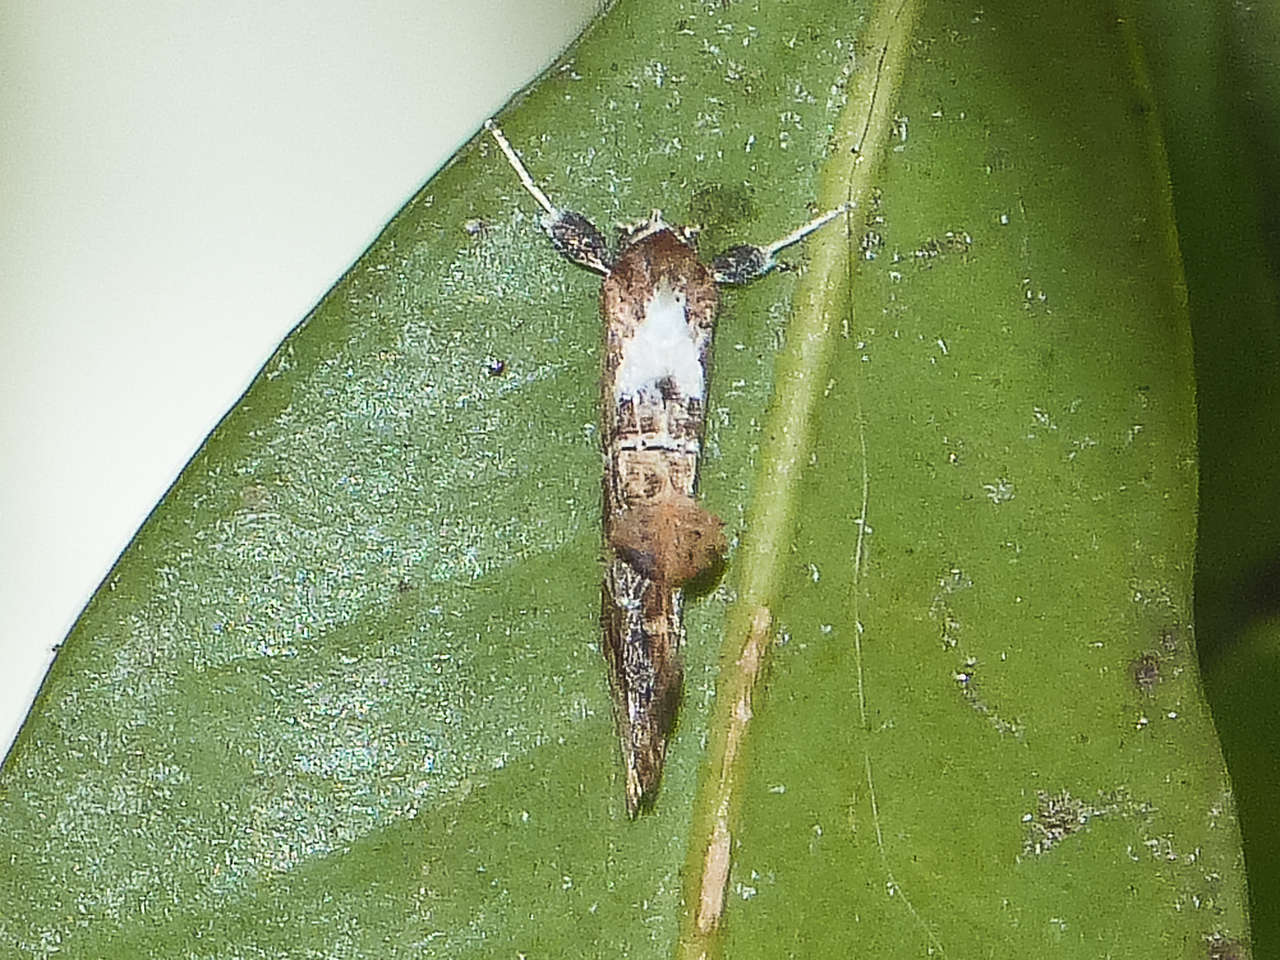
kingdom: Animalia
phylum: Arthropoda
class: Insecta
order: Lepidoptera
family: Erebidae
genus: Arrade
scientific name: Arrade leucocosmalis
